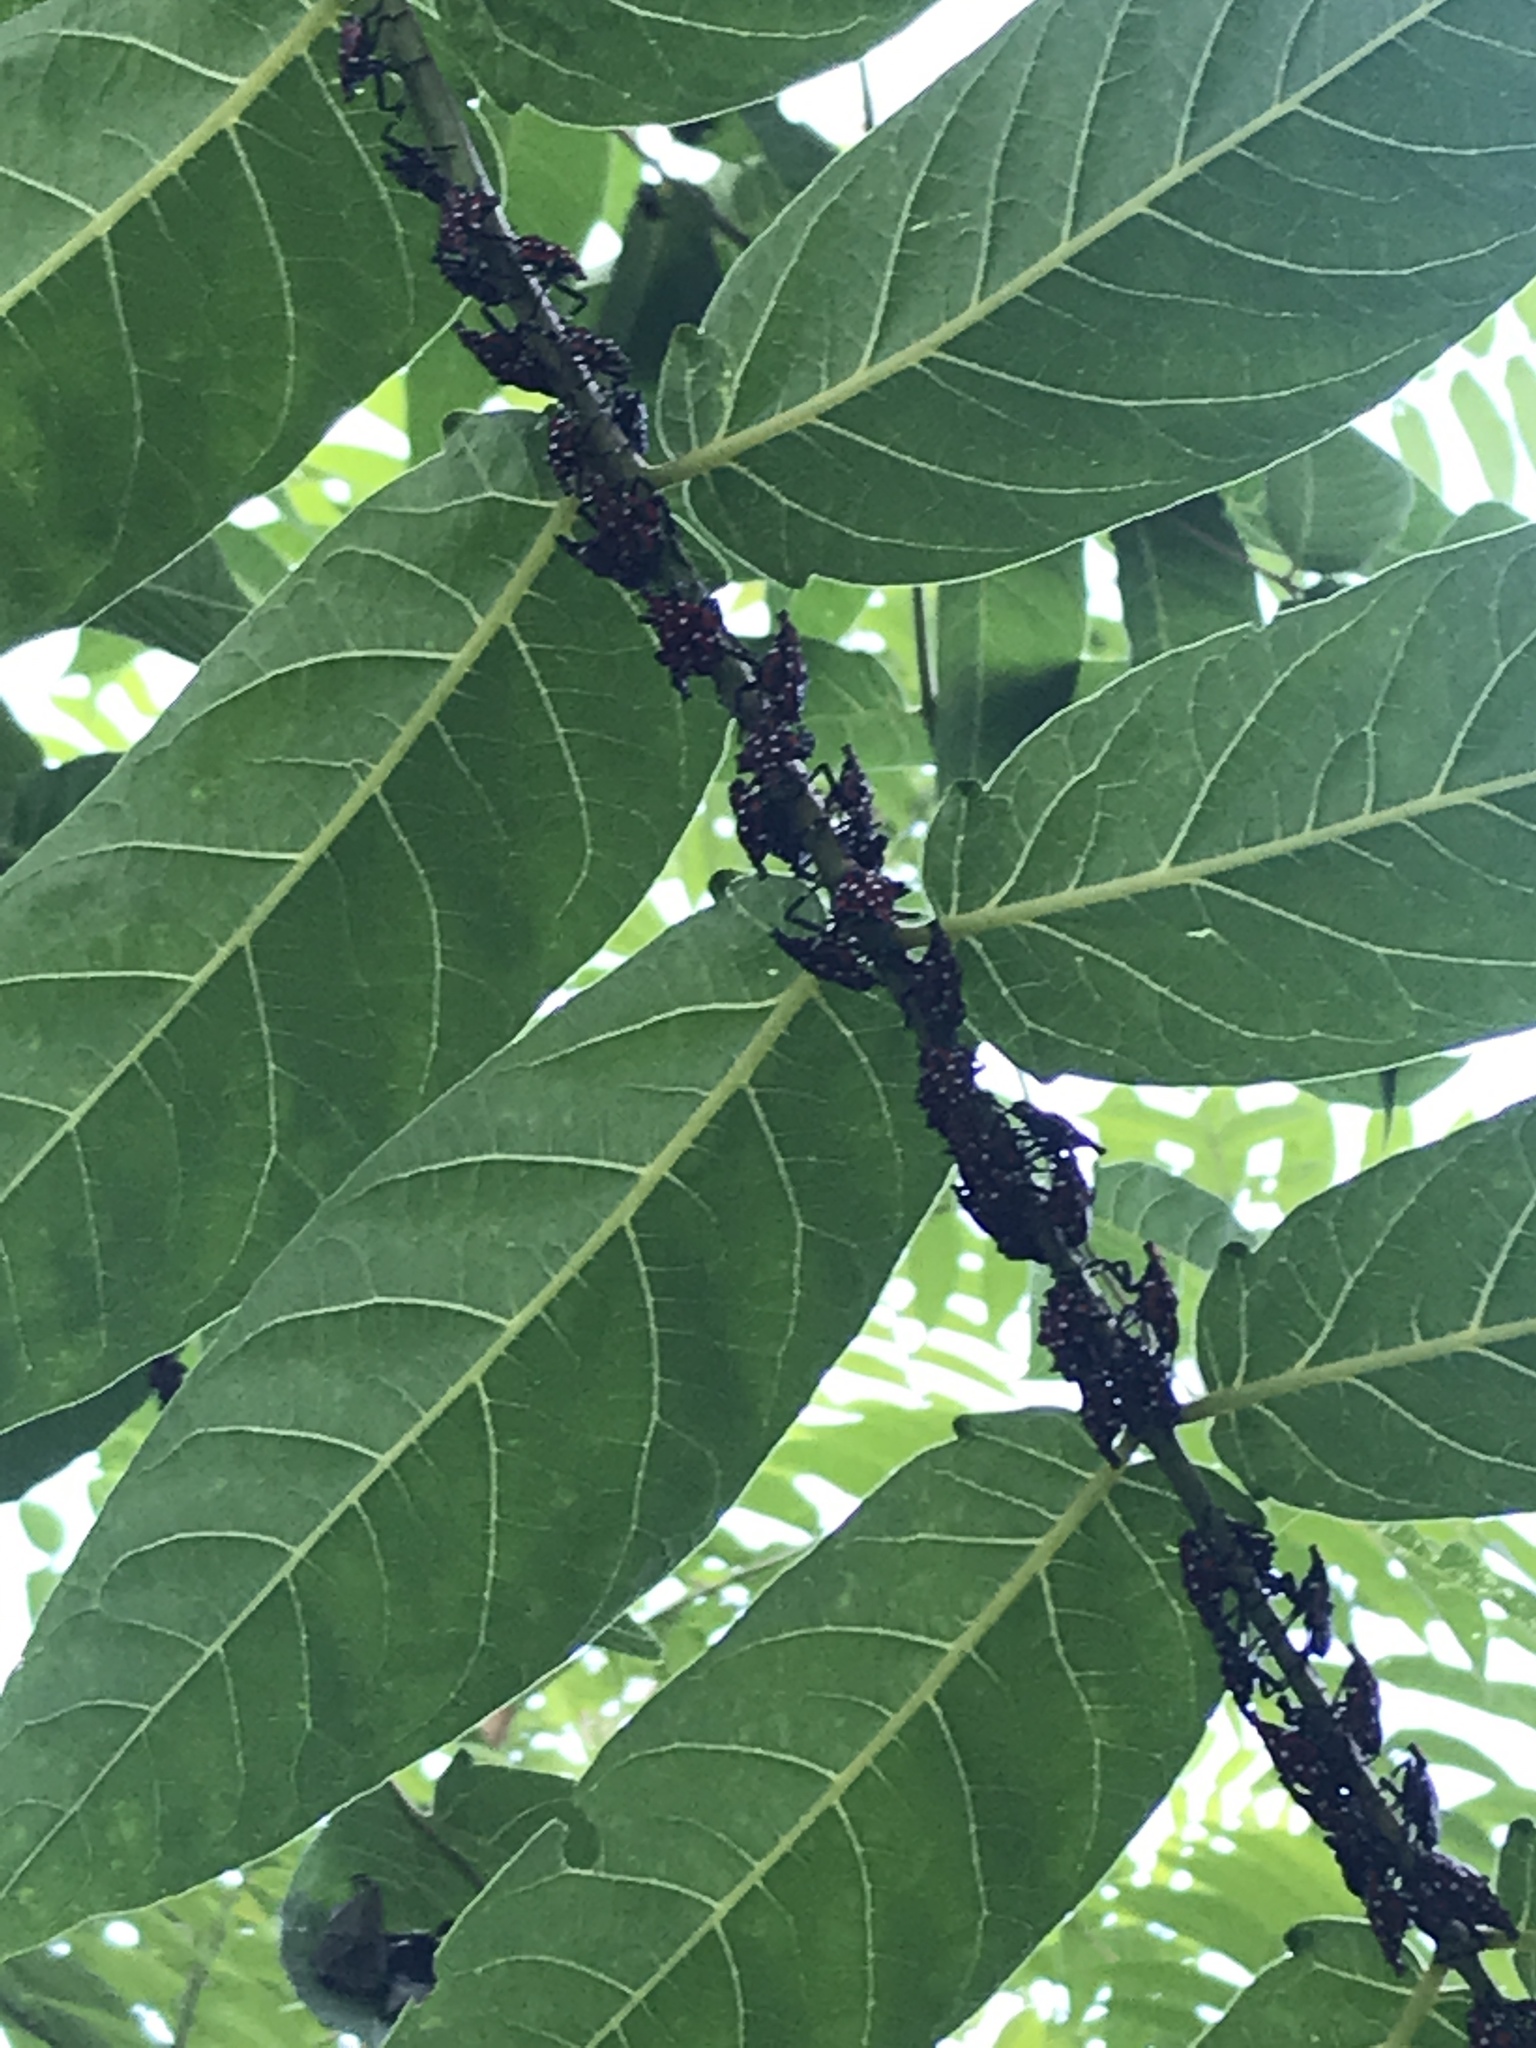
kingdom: Plantae
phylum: Tracheophyta
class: Magnoliopsida
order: Sapindales
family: Simaroubaceae
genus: Ailanthus
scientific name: Ailanthus altissima
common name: Tree-of-heaven
